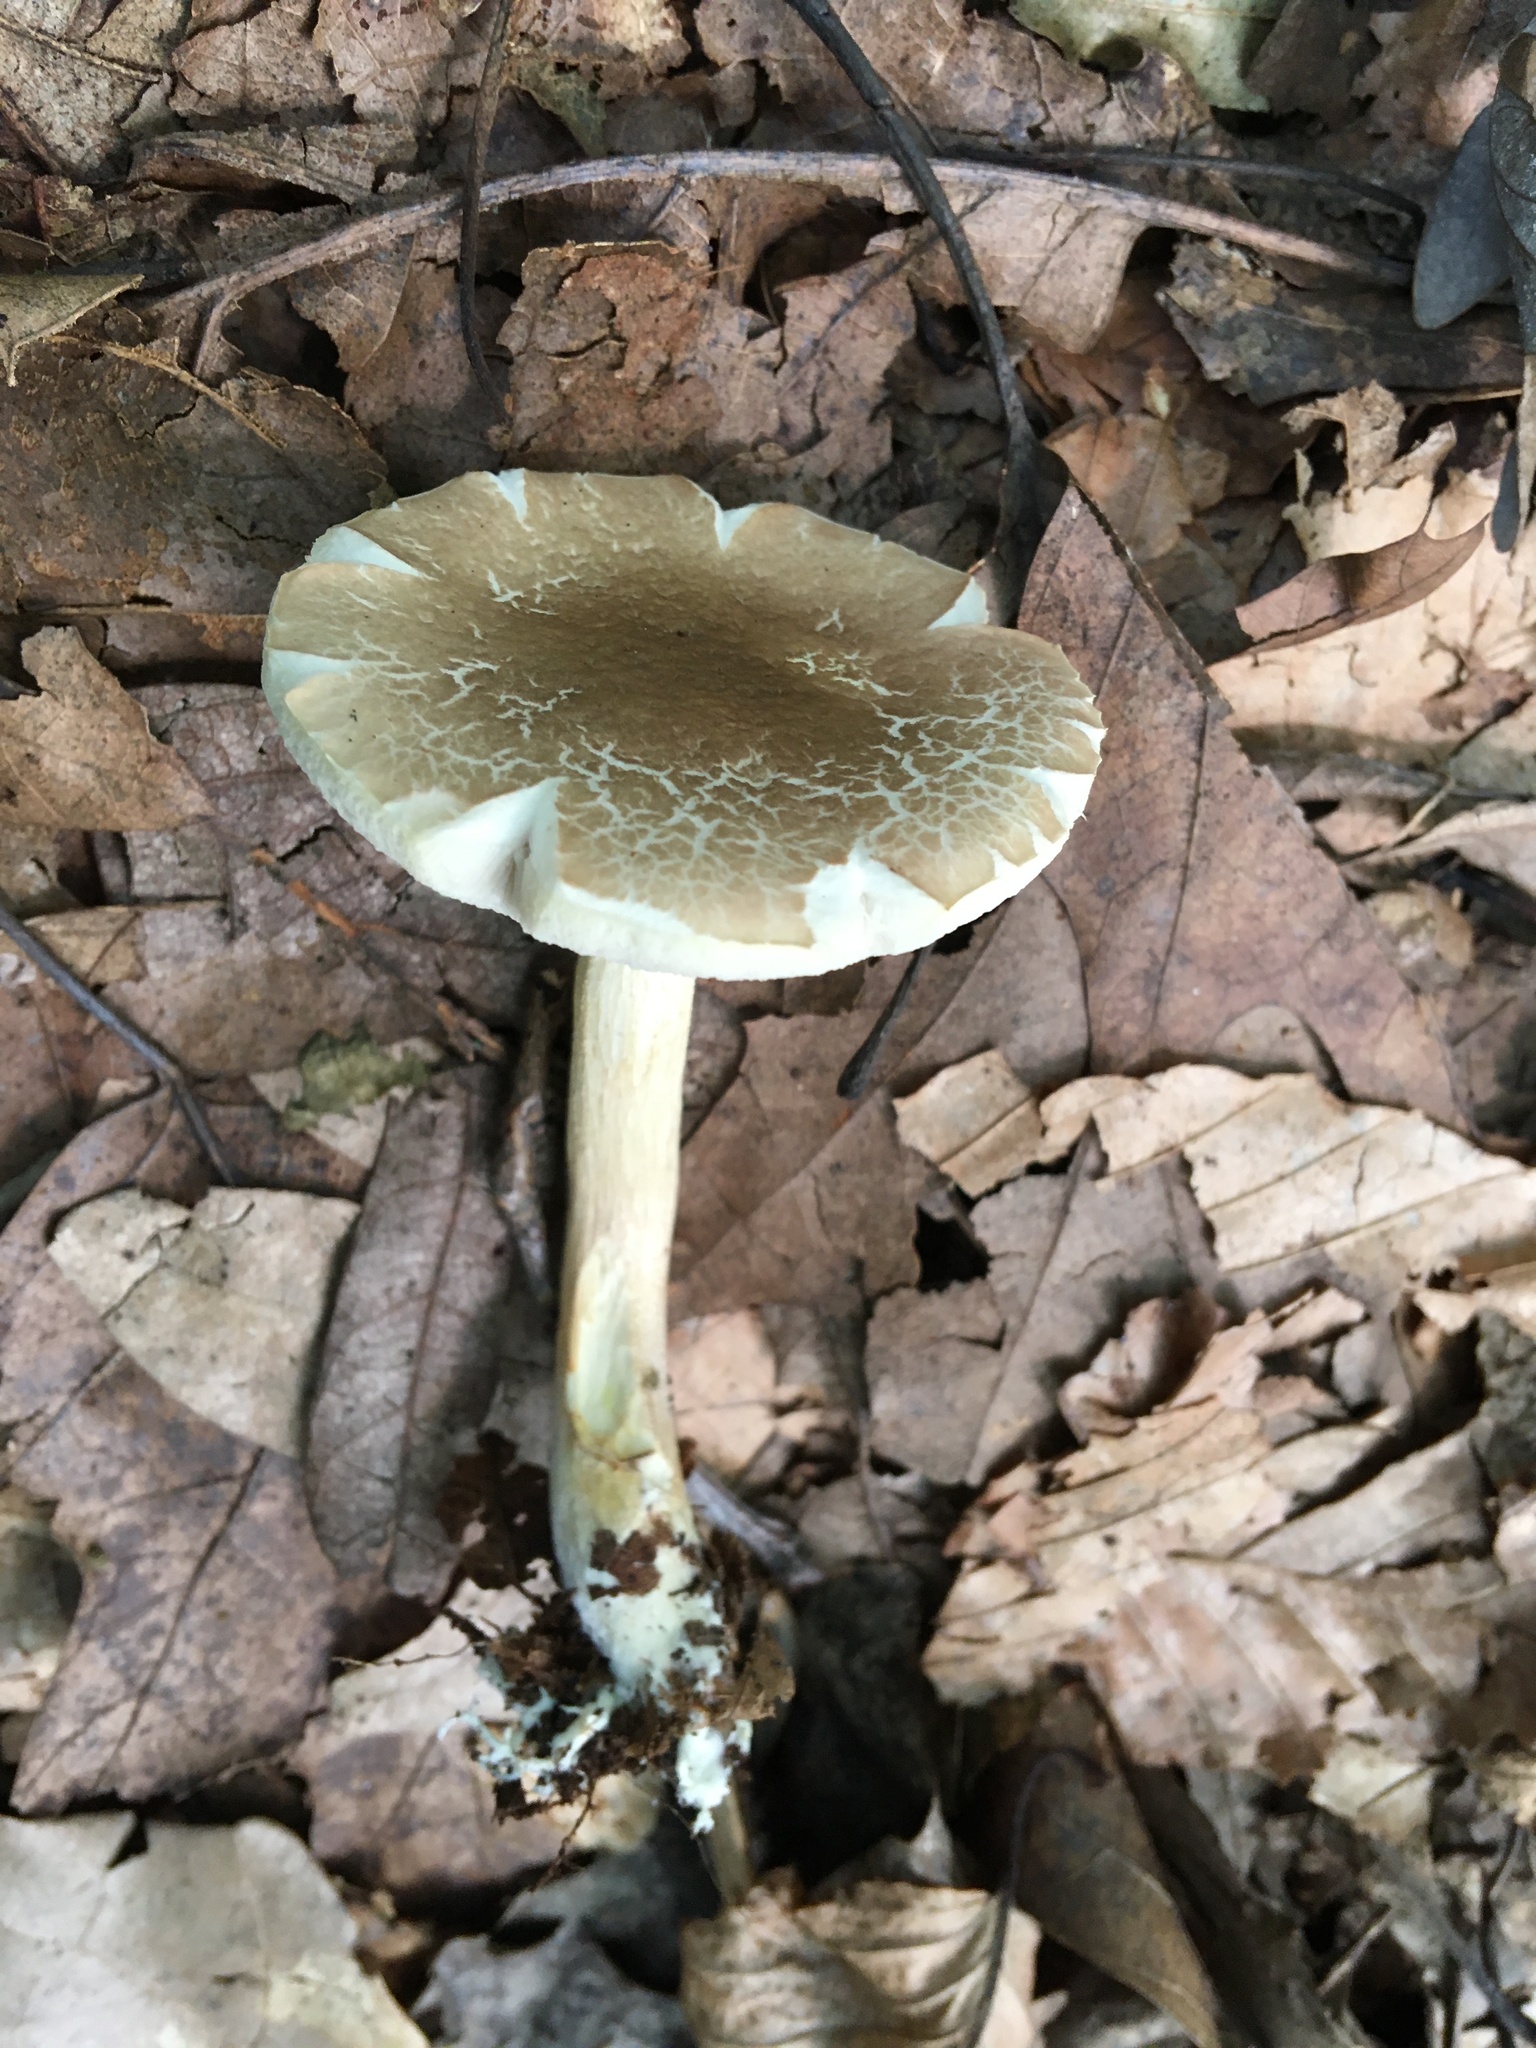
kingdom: Fungi
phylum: Basidiomycota
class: Agaricomycetes
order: Boletales
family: Boletaceae
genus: Leccinellum
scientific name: Leccinellum albellum
